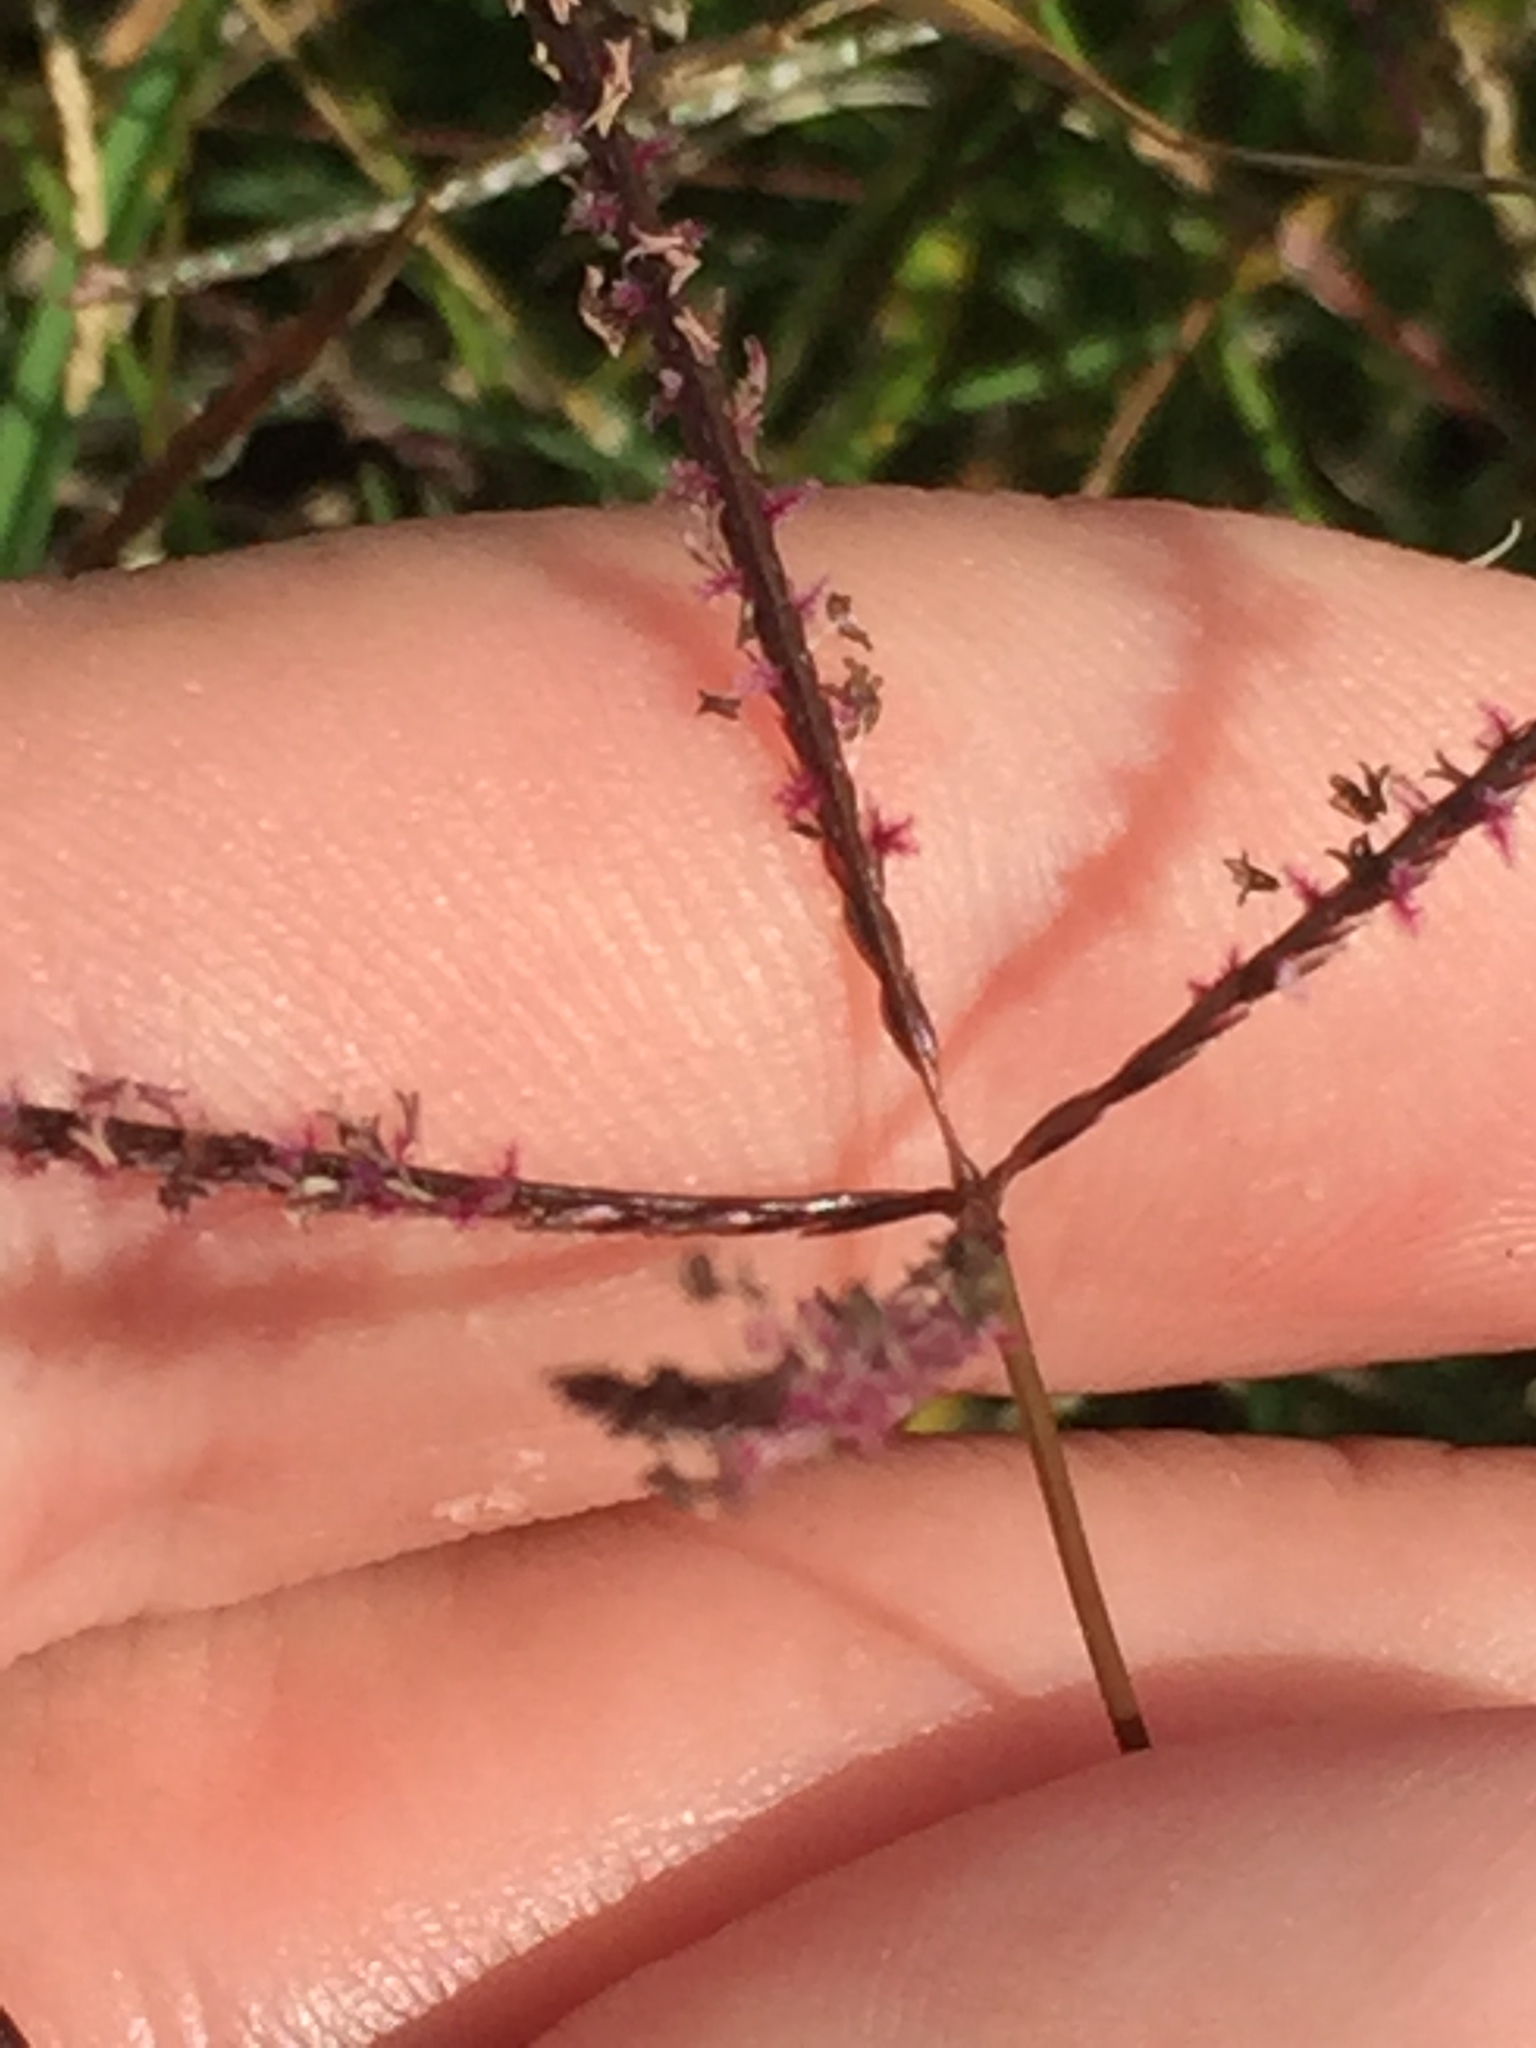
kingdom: Plantae
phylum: Tracheophyta
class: Liliopsida
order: Poales
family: Poaceae
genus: Cynodon
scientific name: Cynodon dactylon
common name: Bermuda grass
